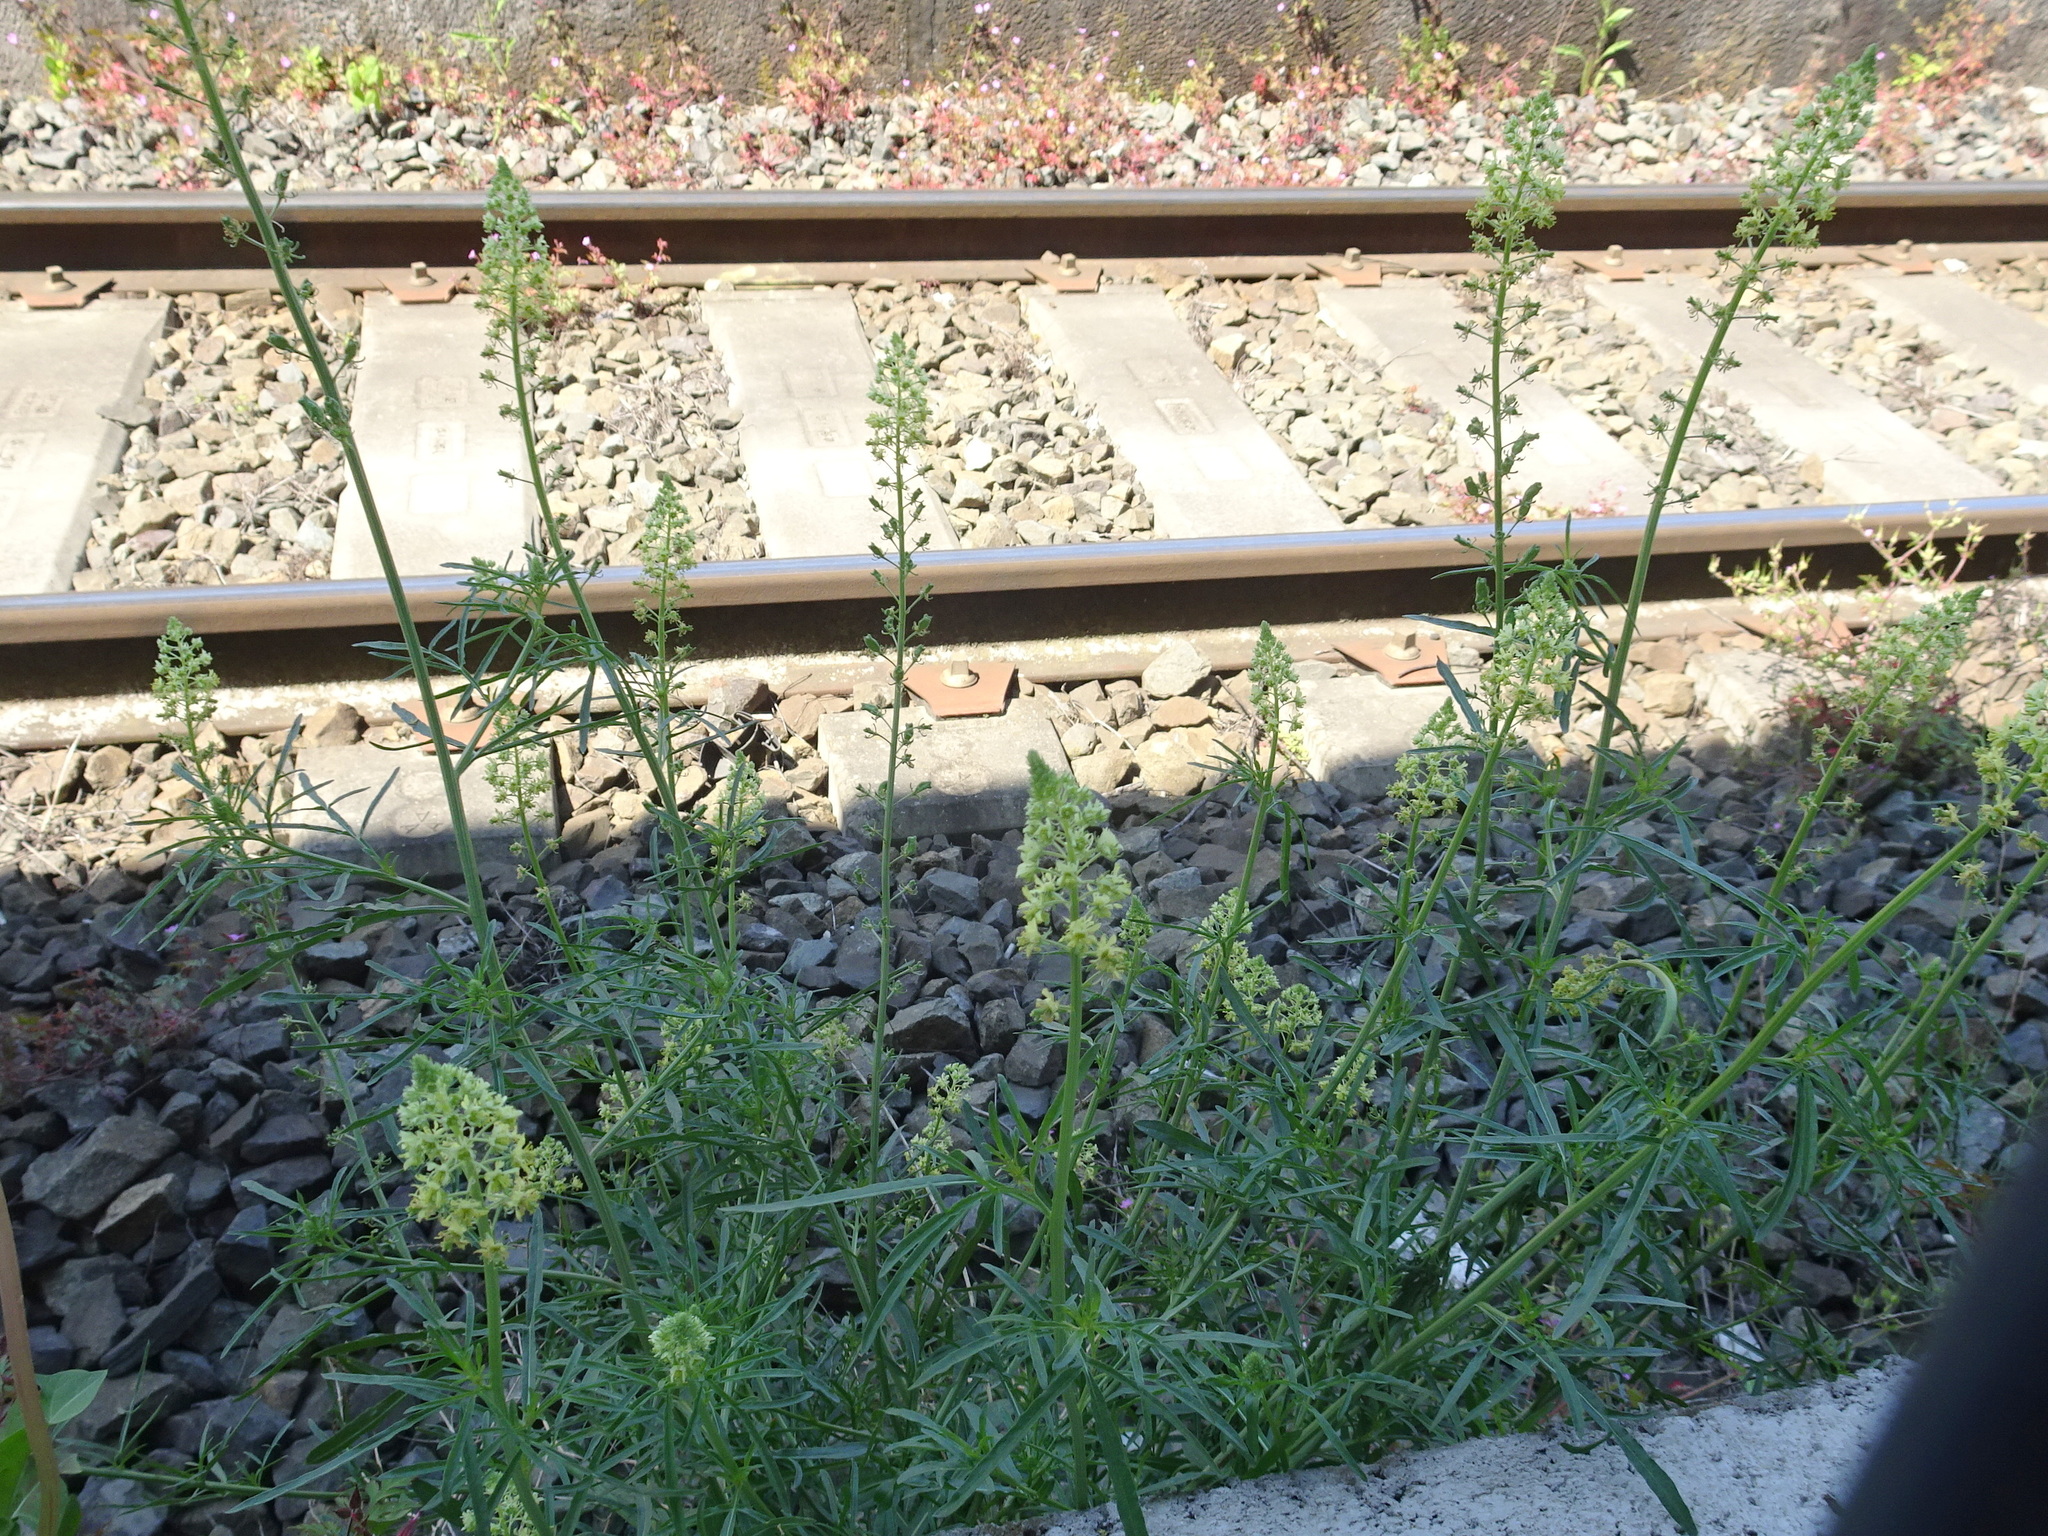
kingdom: Plantae
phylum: Tracheophyta
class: Magnoliopsida
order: Brassicales
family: Resedaceae
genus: Reseda
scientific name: Reseda lutea
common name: Wild mignonette
